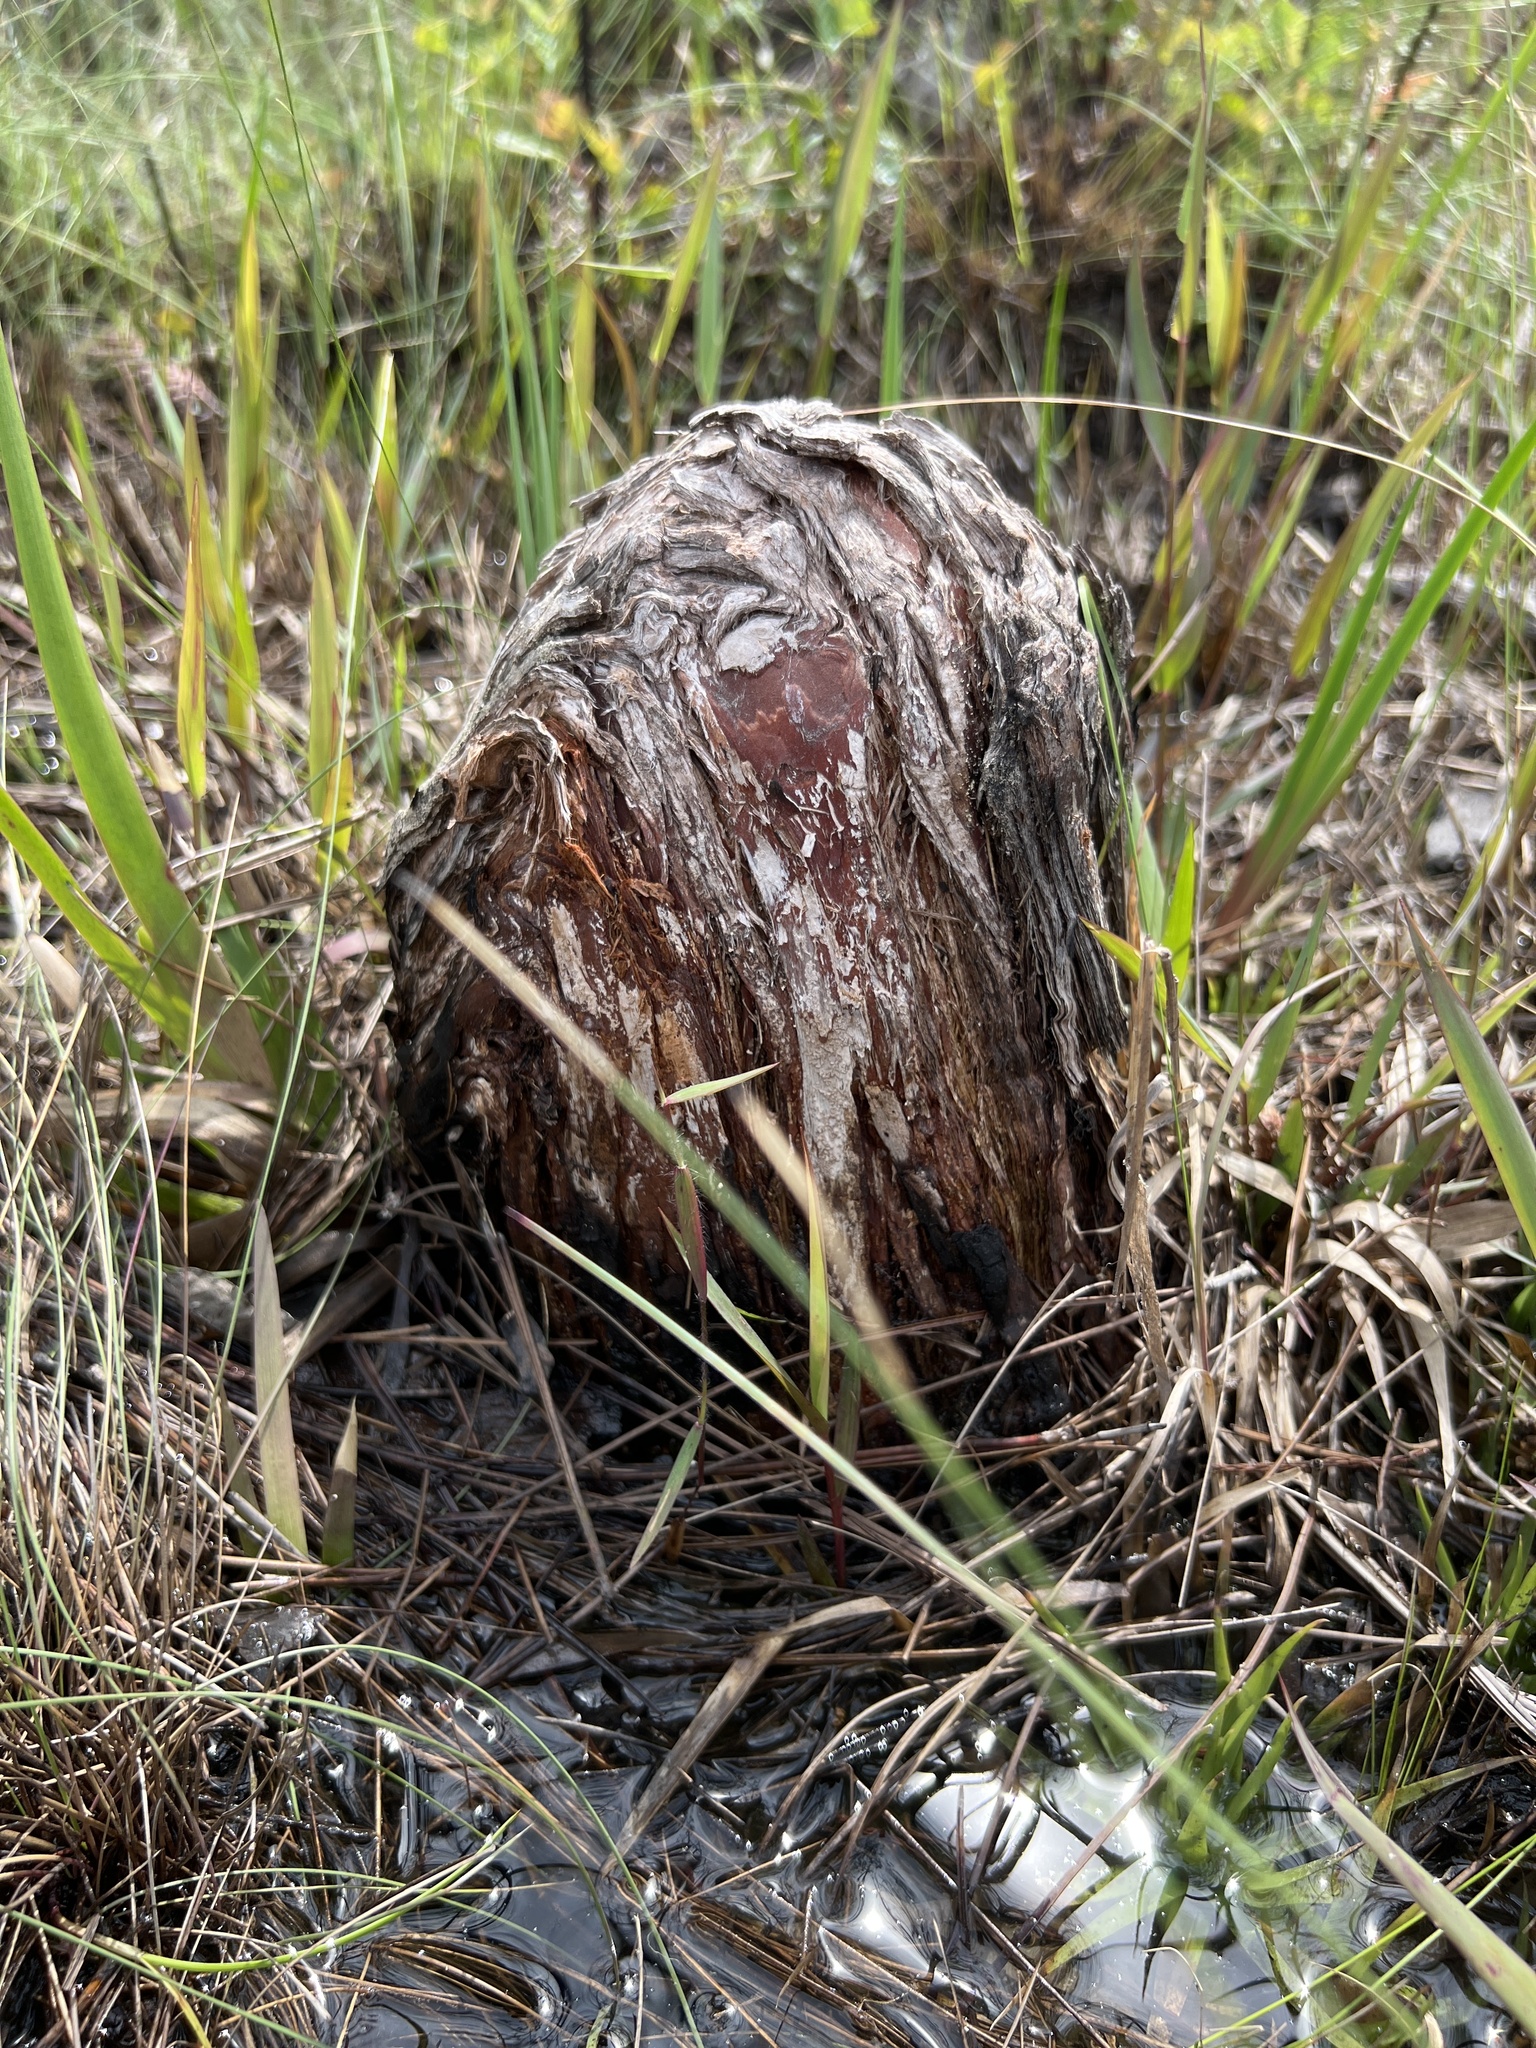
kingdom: Plantae
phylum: Tracheophyta
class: Pinopsida
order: Pinales
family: Cupressaceae
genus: Taxodium
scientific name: Taxodium distichum
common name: Bald cypress
